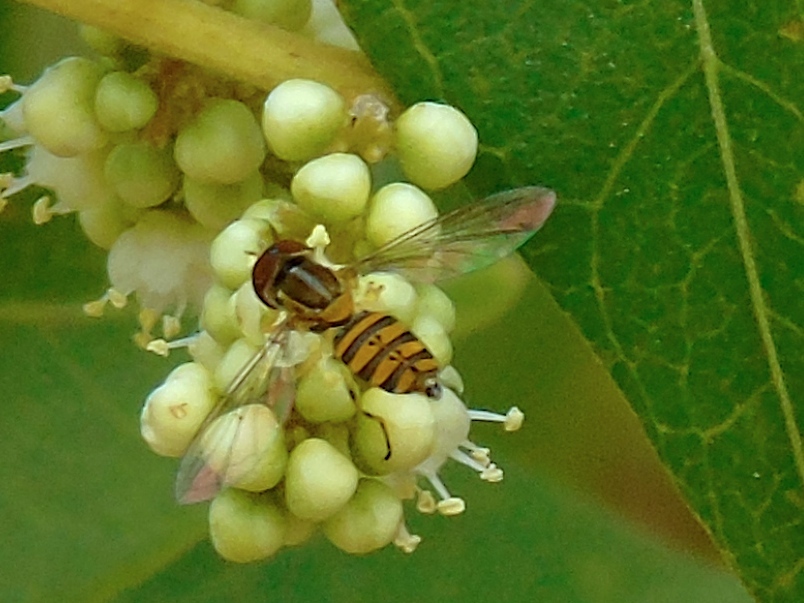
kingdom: Animalia
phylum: Arthropoda
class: Insecta
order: Diptera
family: Syrphidae
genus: Toxomerus
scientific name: Toxomerus
